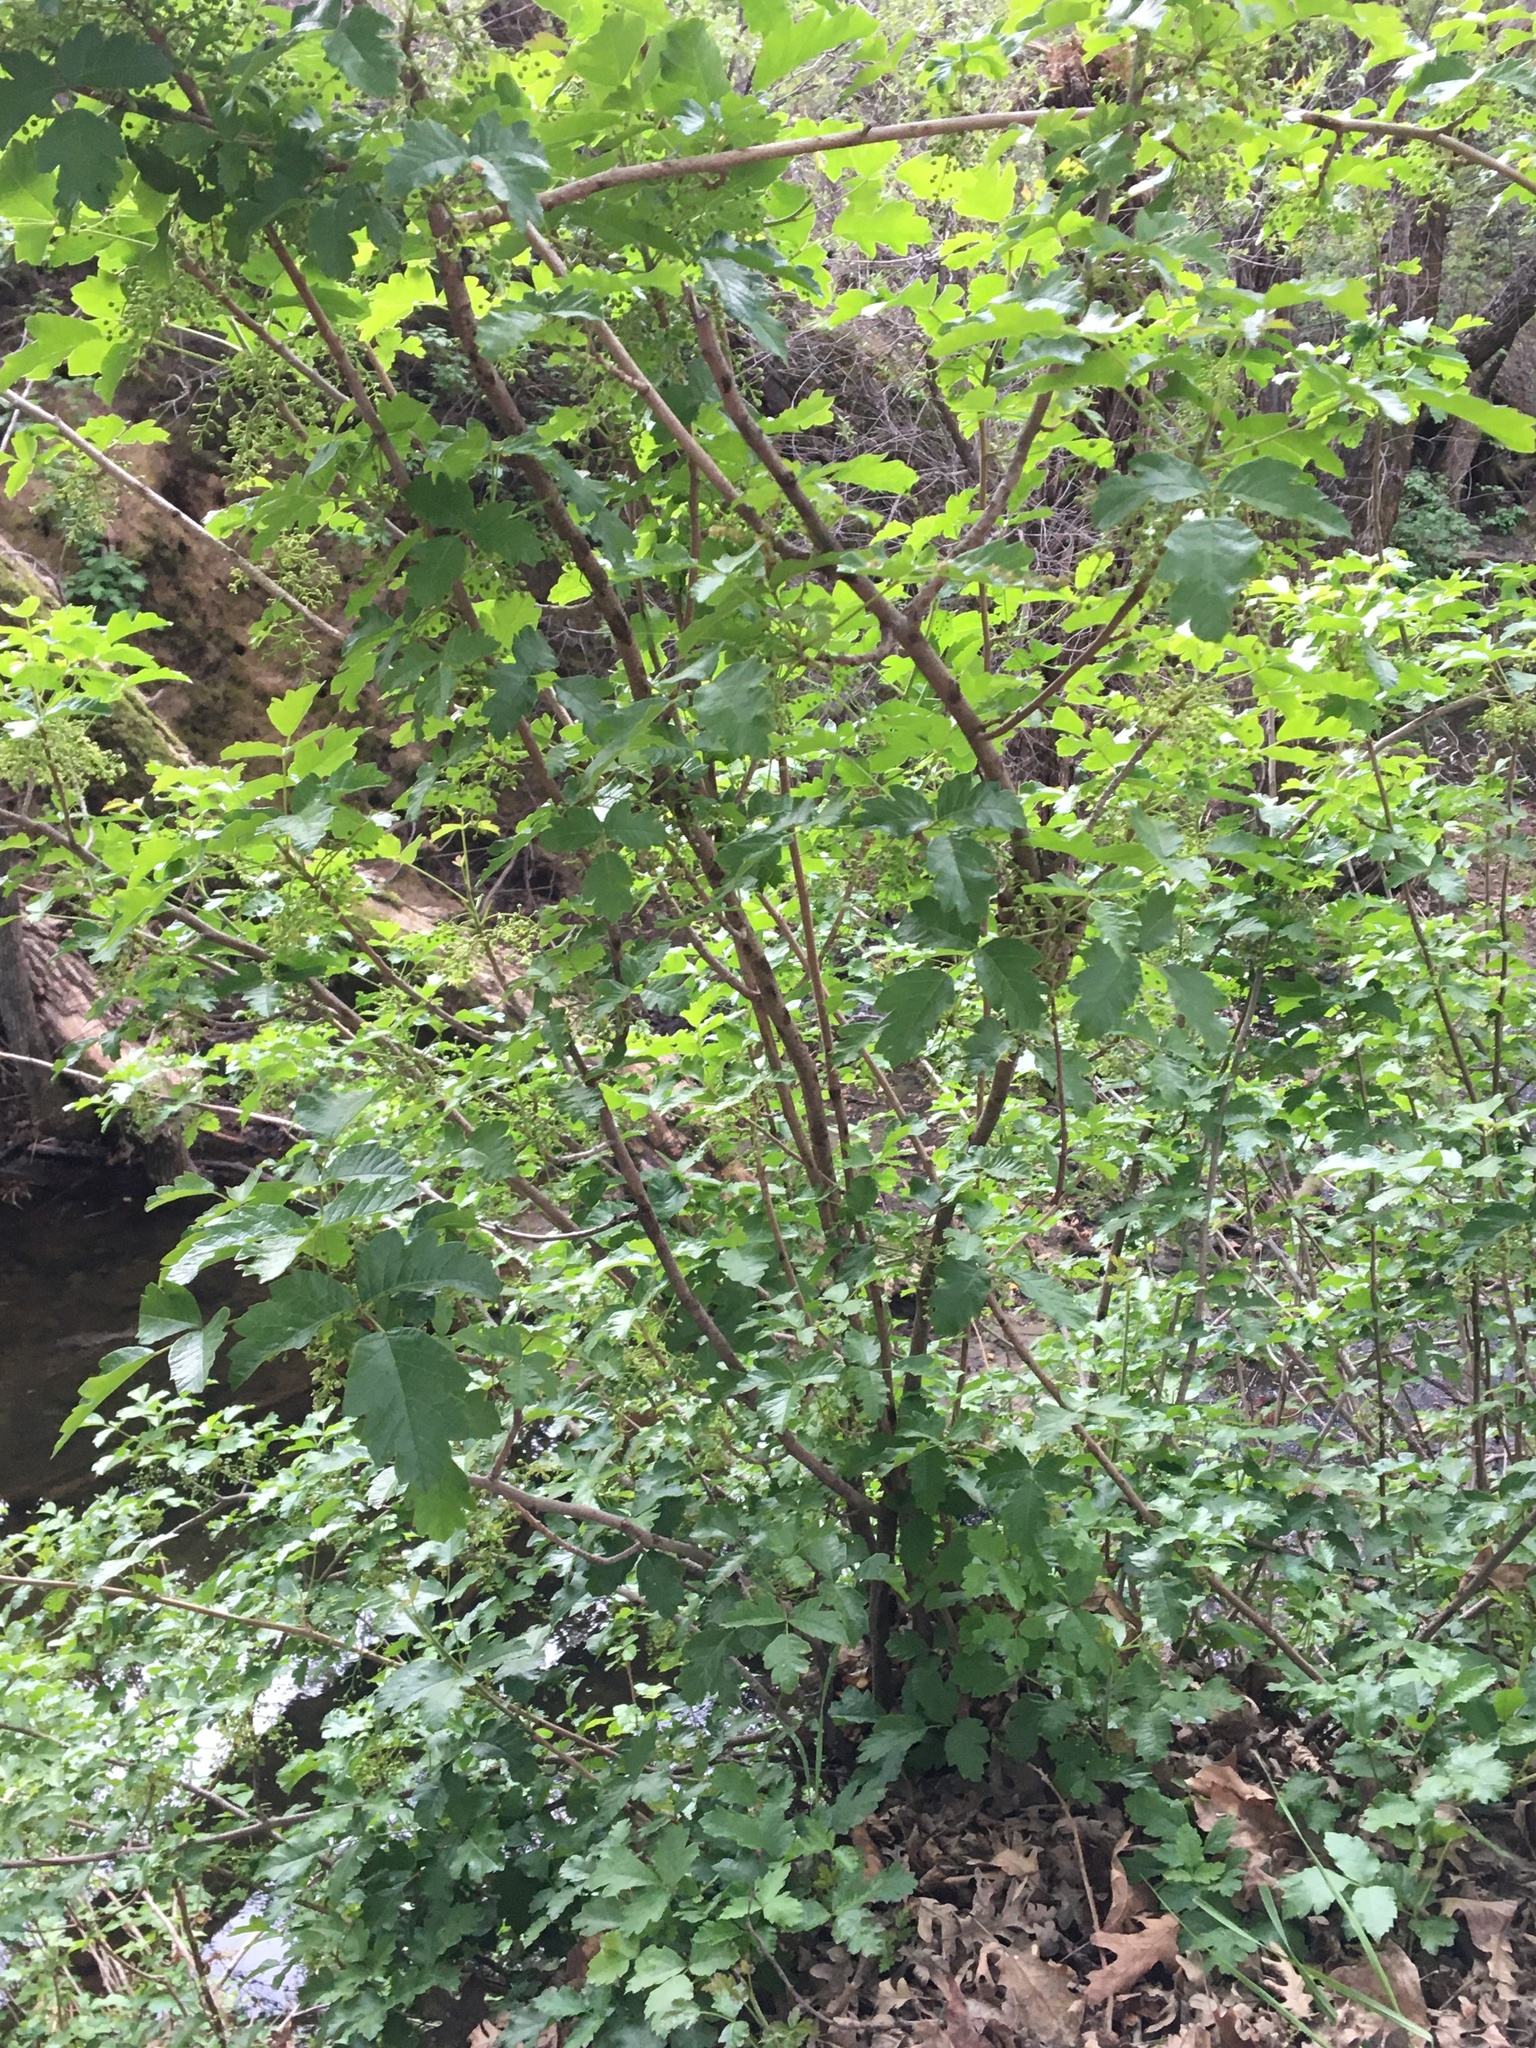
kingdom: Plantae
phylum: Tracheophyta
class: Magnoliopsida
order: Sapindales
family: Anacardiaceae
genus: Toxicodendron
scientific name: Toxicodendron diversilobum
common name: Pacific poison-oak
